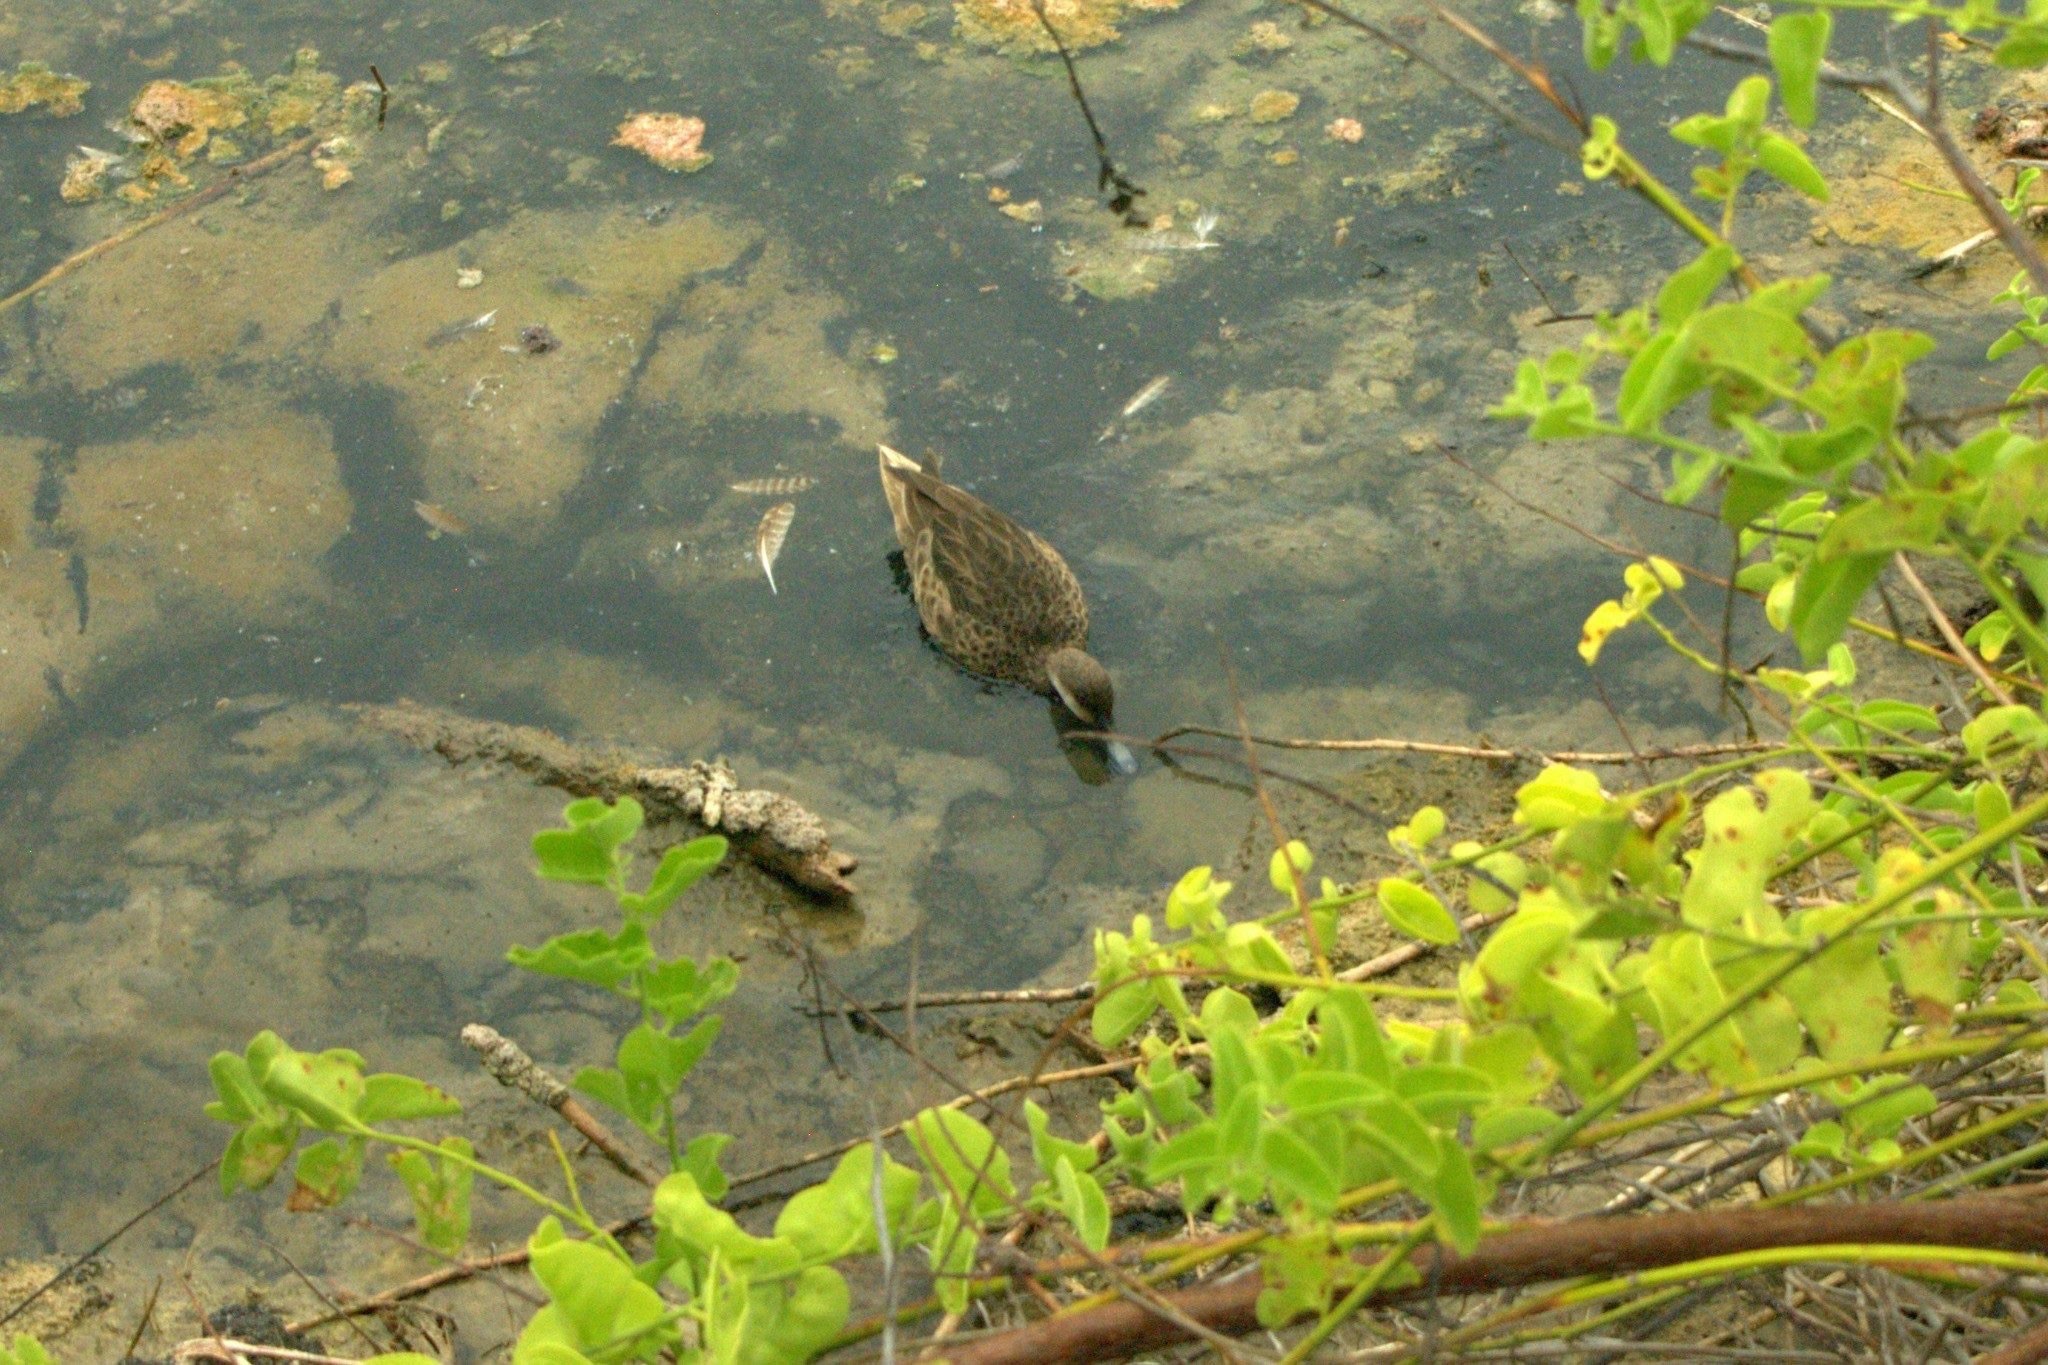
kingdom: Animalia
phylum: Chordata
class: Aves
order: Anseriformes
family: Anatidae
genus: Anas
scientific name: Anas bahamensis
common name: White-cheeked pintail
